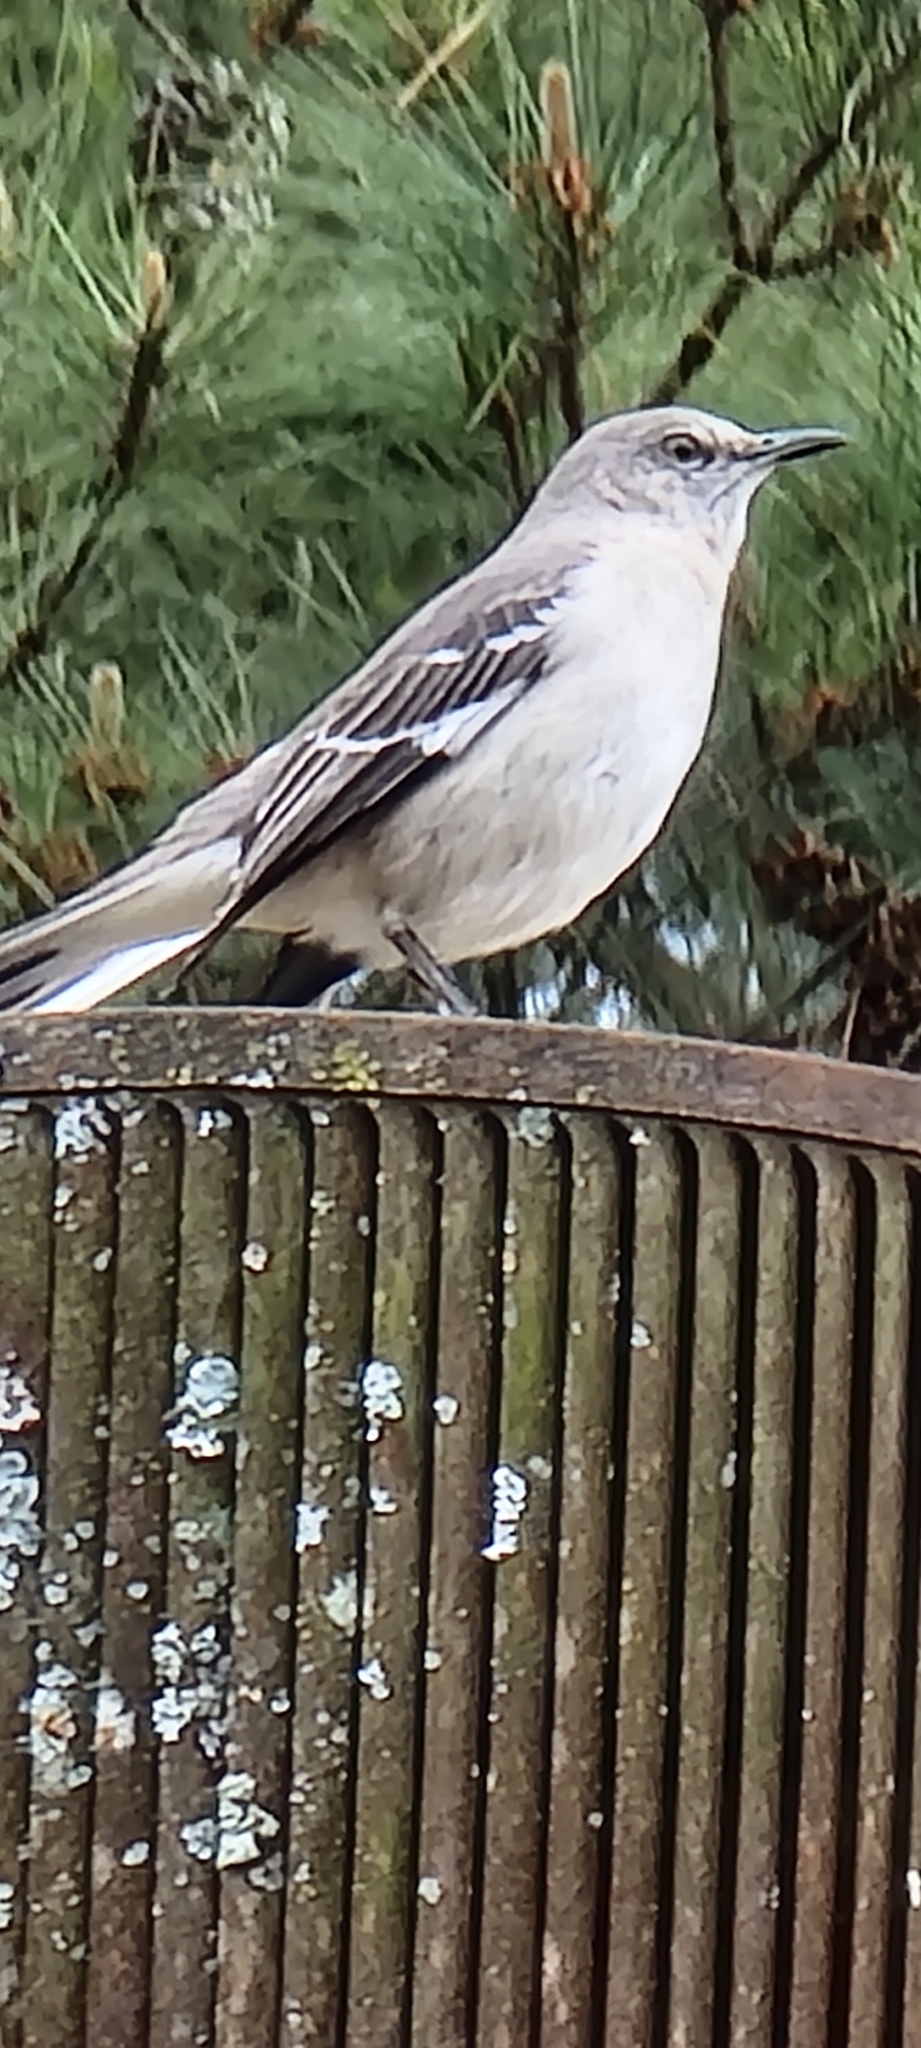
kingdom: Animalia
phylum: Chordata
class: Aves
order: Passeriformes
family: Mimidae
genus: Mimus
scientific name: Mimus polyglottos
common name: Northern mockingbird
